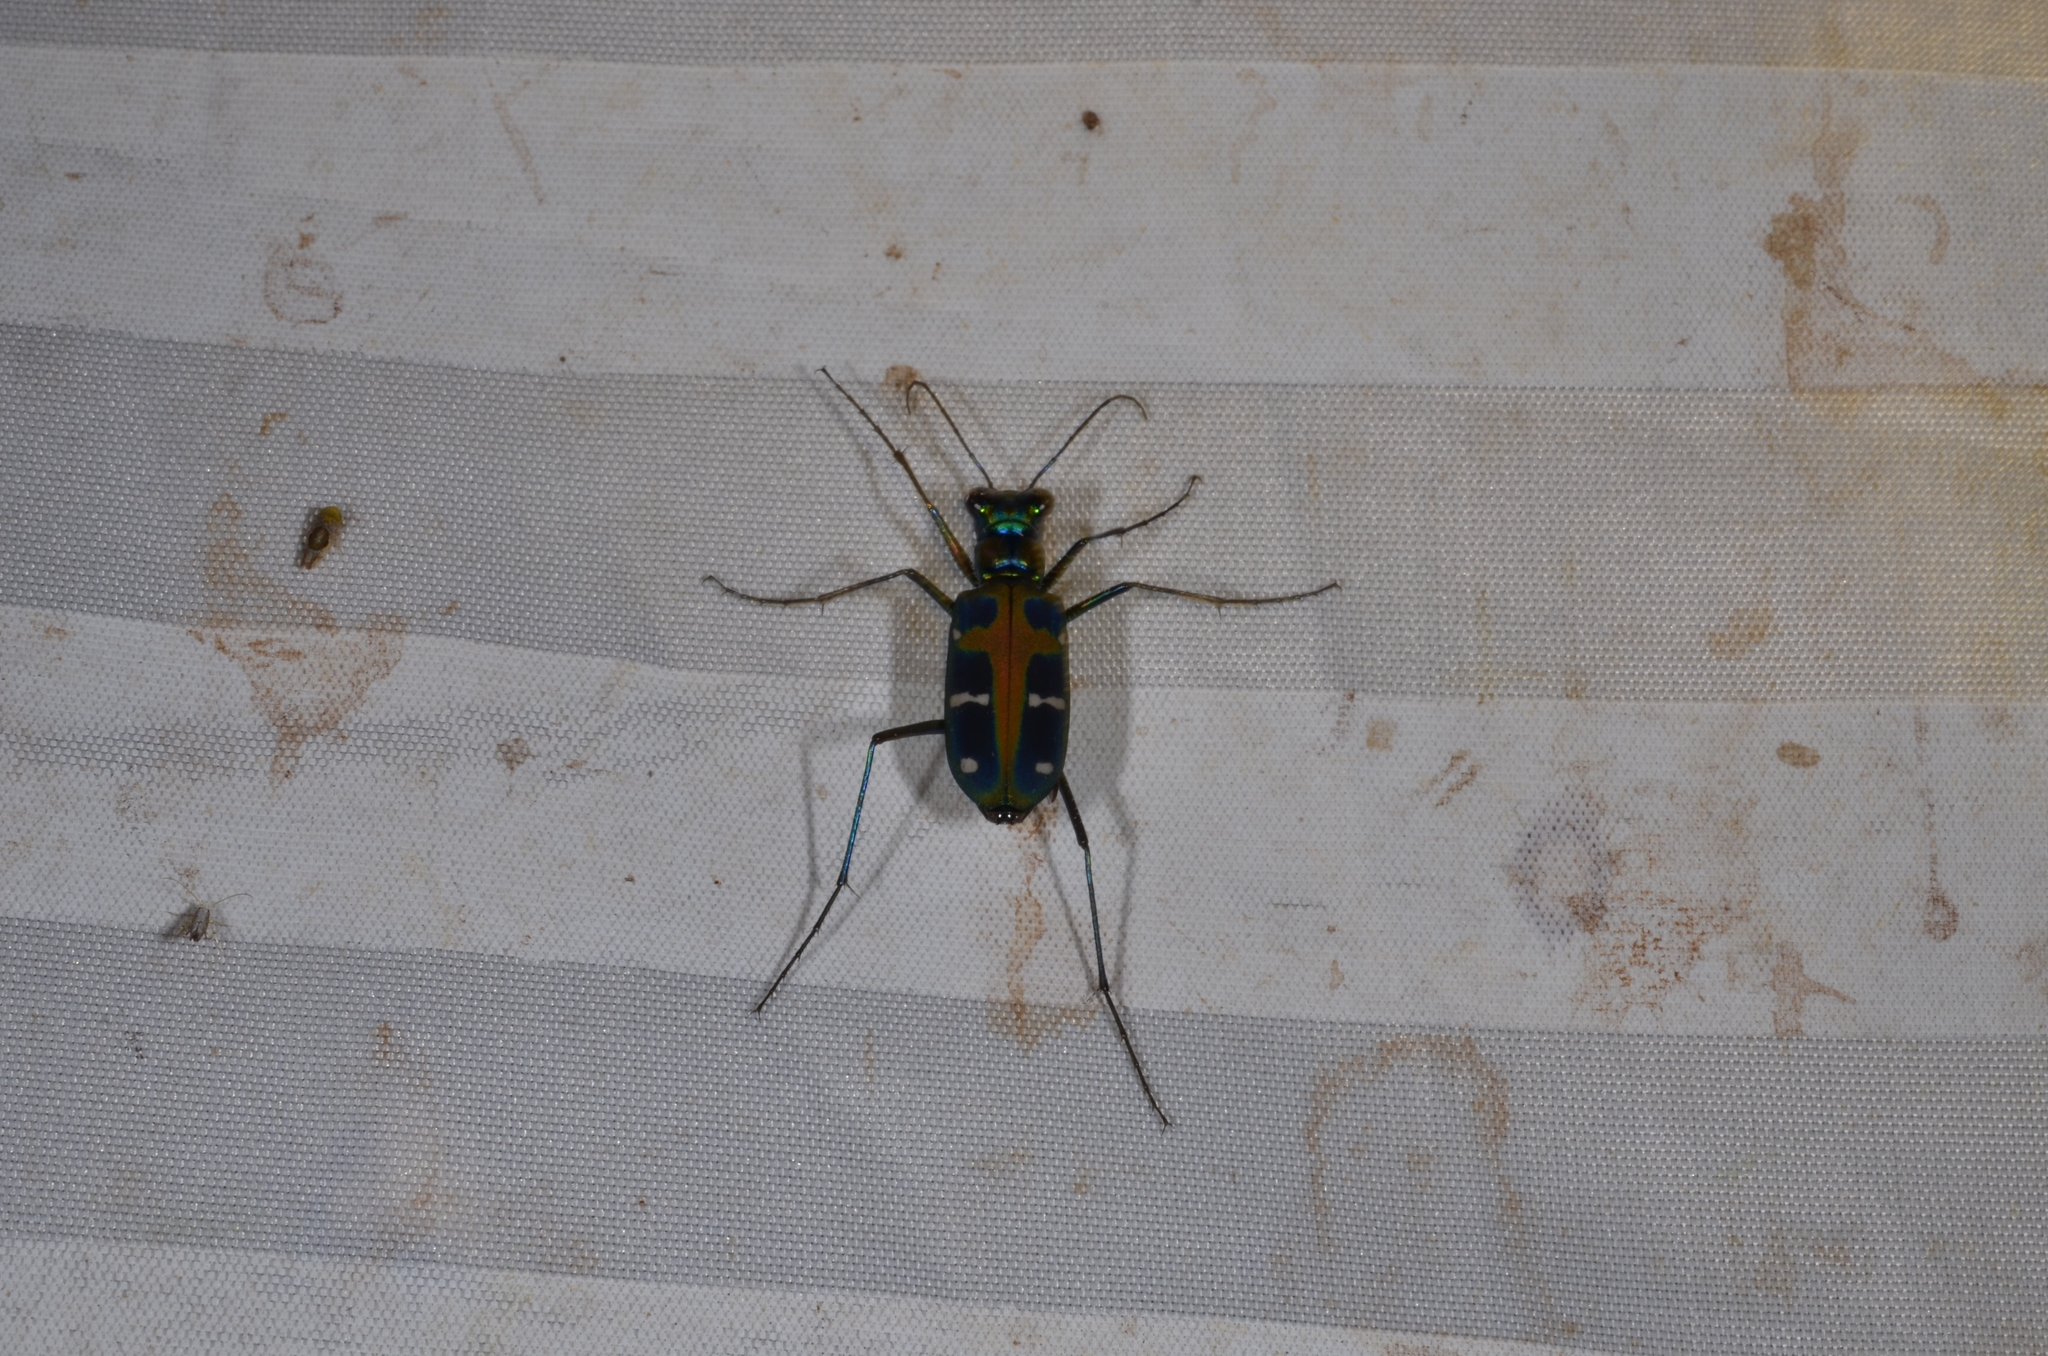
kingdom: Animalia
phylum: Arthropoda
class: Insecta
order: Coleoptera
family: Carabidae
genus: Cicindela
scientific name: Cicindela duponti
